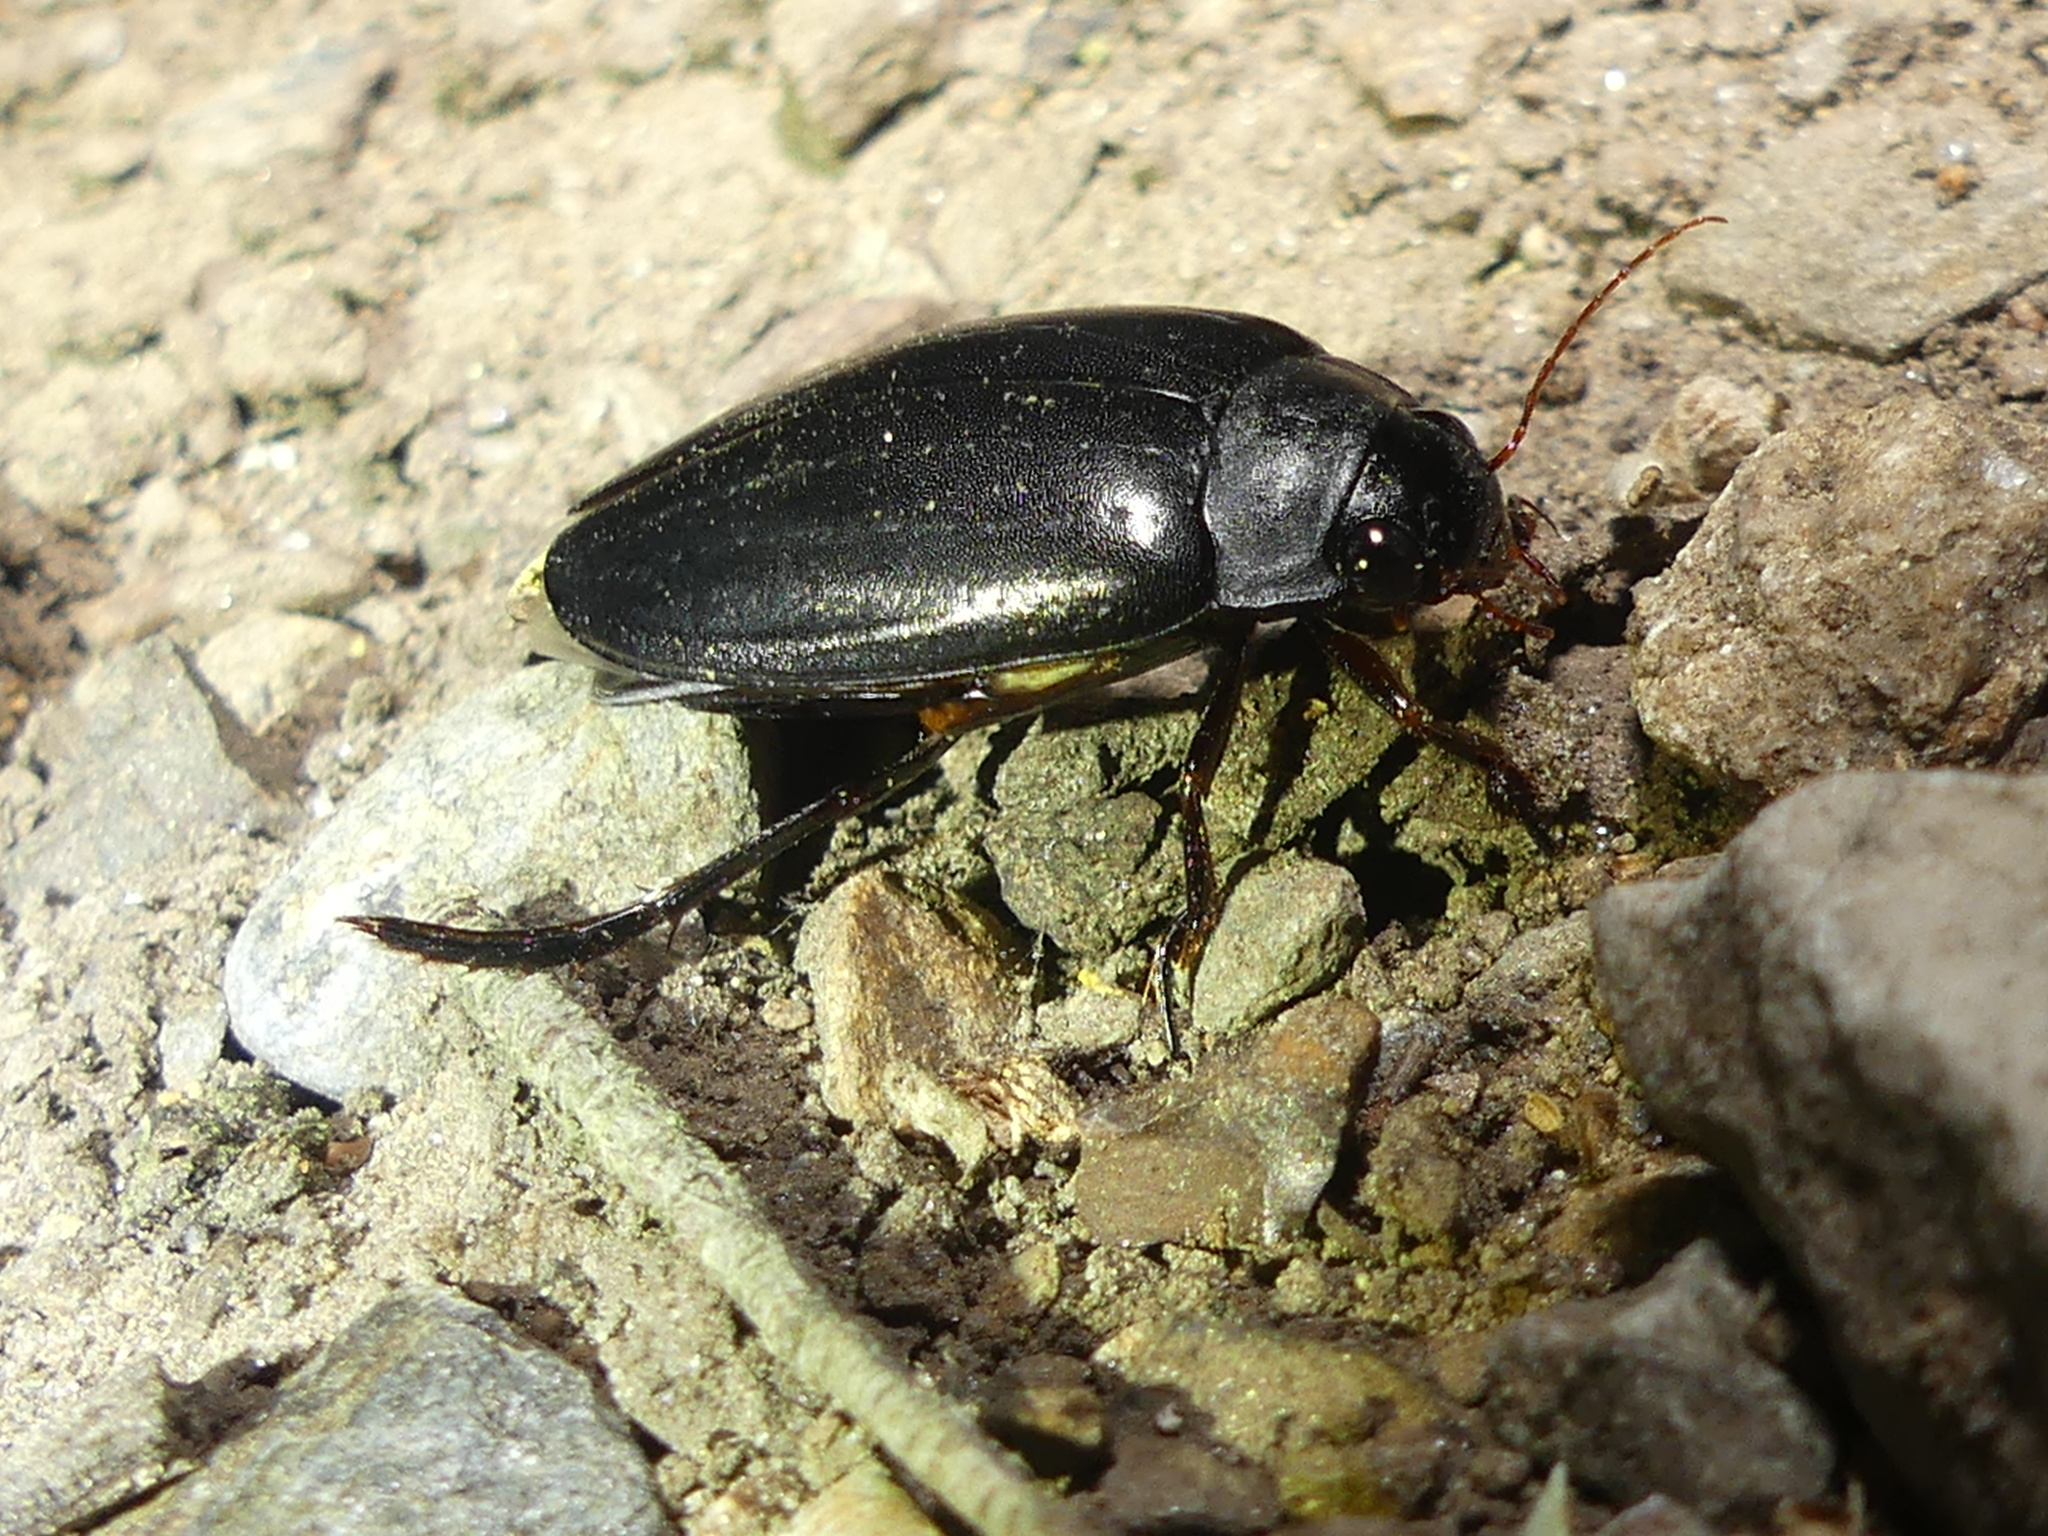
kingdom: Animalia
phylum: Arthropoda
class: Insecta
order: Coleoptera
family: Dytiscidae
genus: Meladema
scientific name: Meladema coriacea
